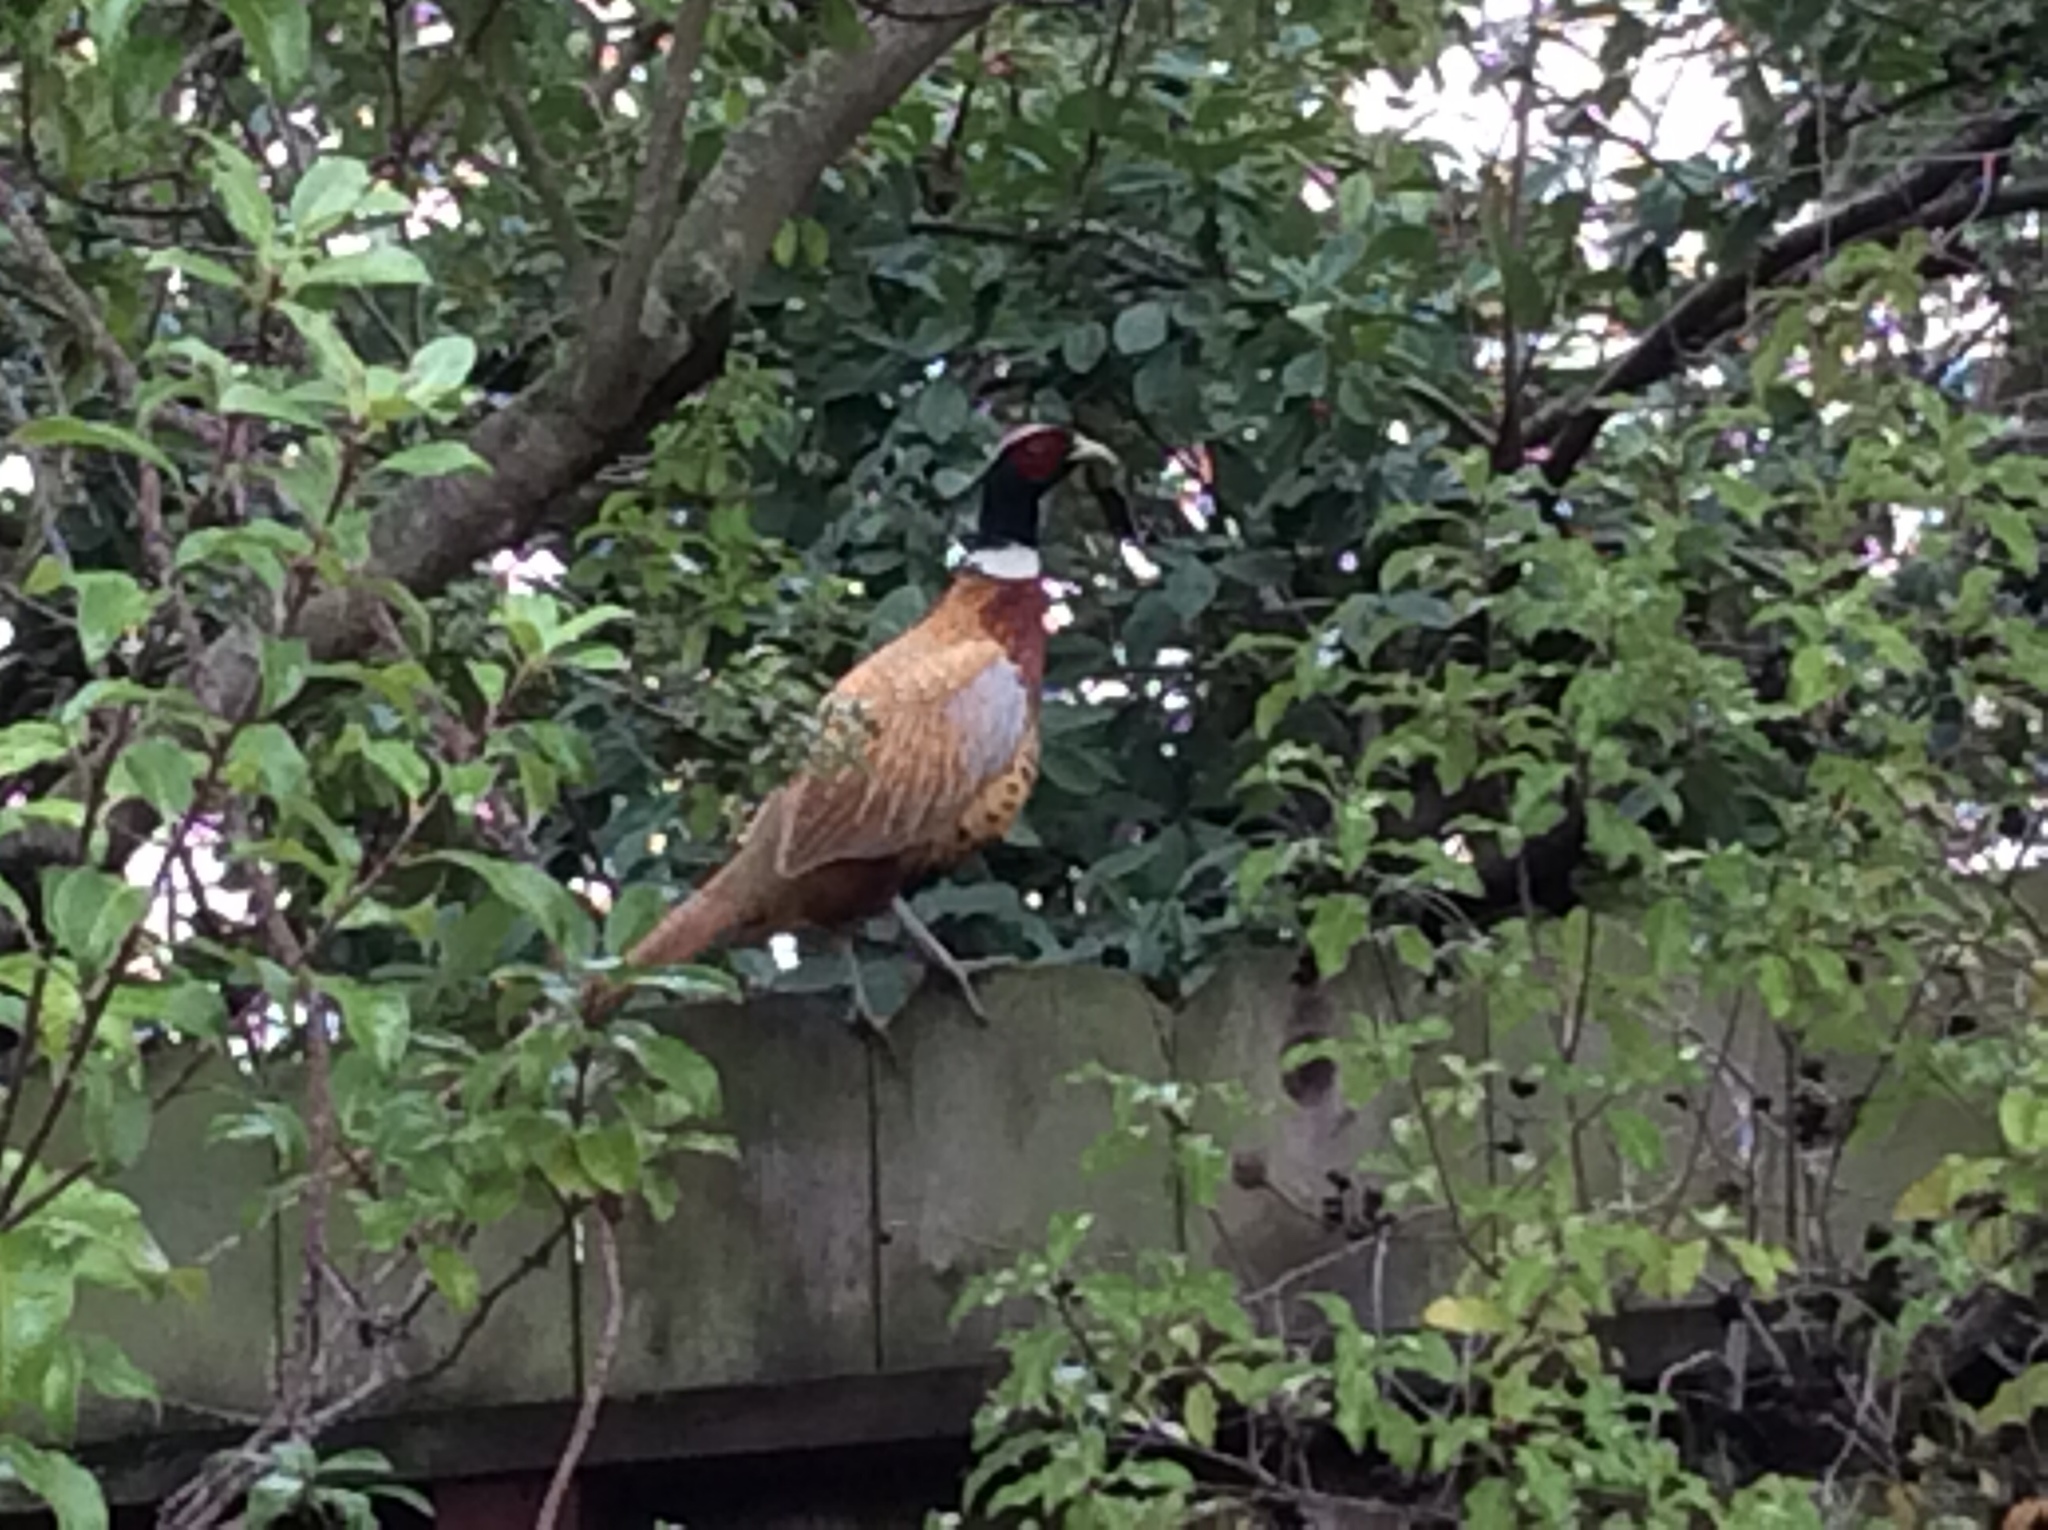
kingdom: Animalia
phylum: Chordata
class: Aves
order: Galliformes
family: Phasianidae
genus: Phasianus
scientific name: Phasianus colchicus
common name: Common pheasant
